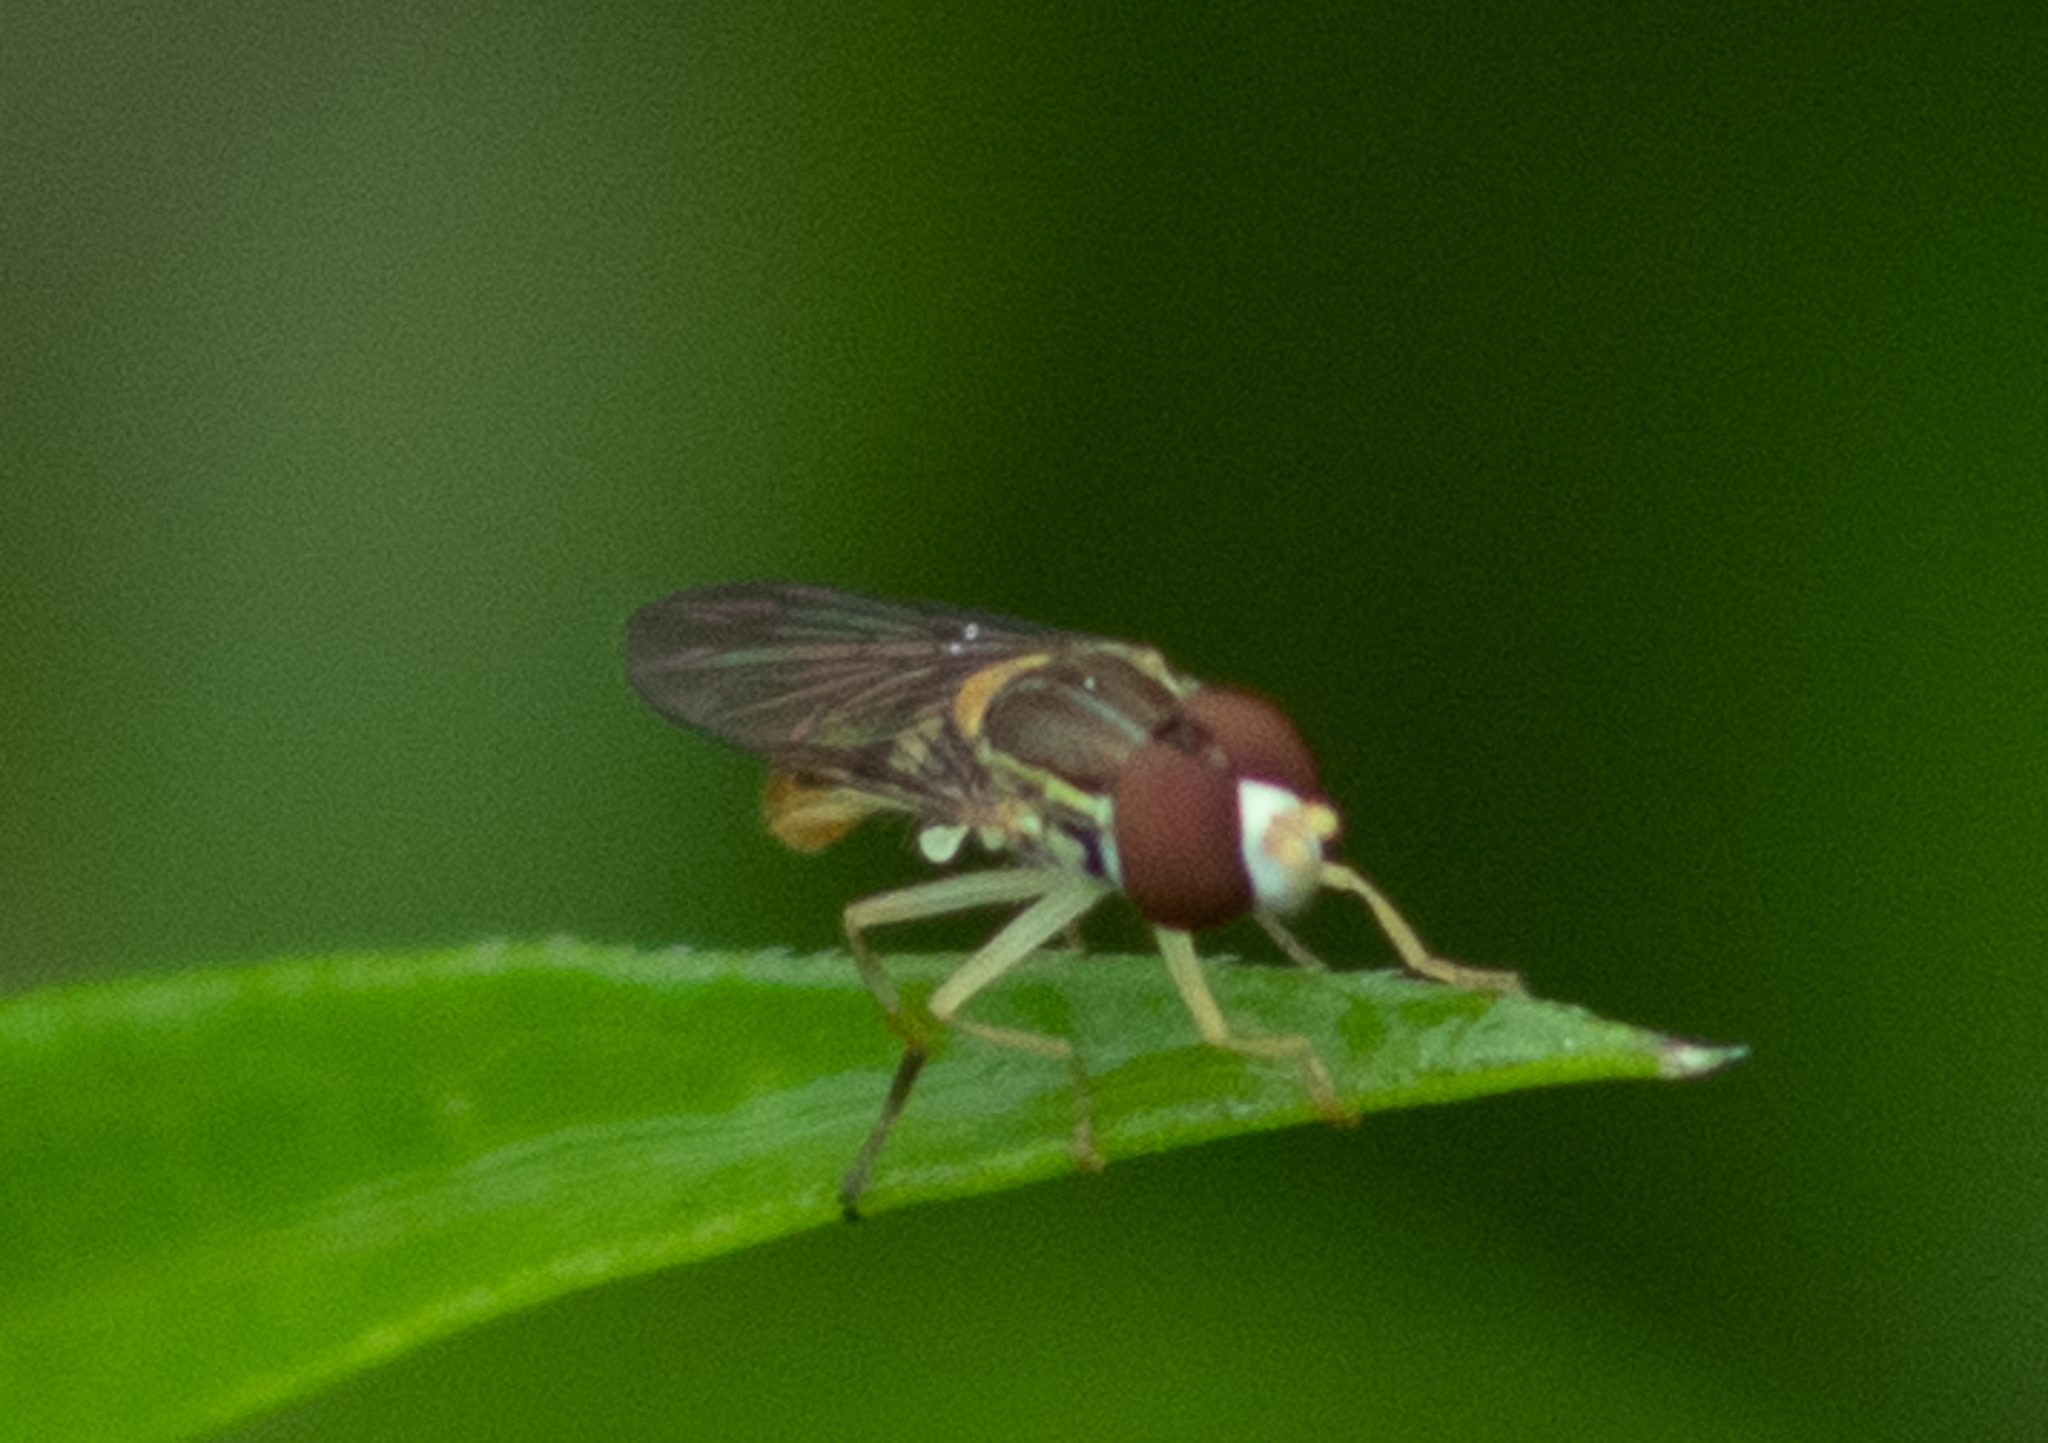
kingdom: Animalia
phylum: Arthropoda
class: Insecta
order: Diptera
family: Syrphidae
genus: Toxomerus
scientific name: Toxomerus marginatus
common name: Syrphid fly
